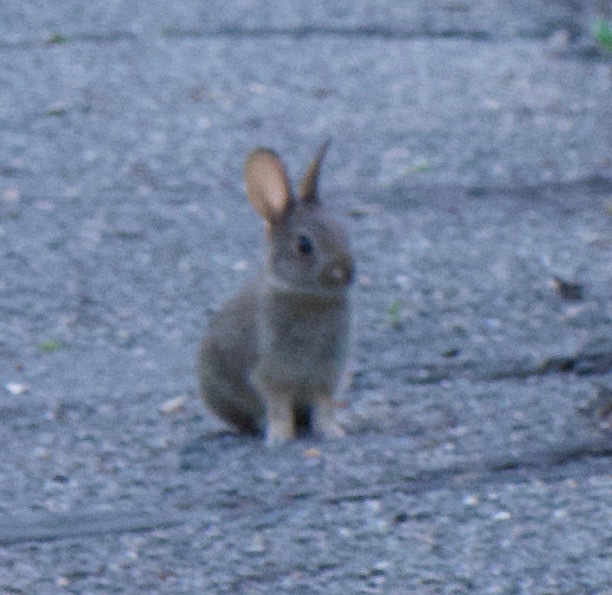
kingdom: Animalia
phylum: Chordata
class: Mammalia
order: Lagomorpha
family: Leporidae
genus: Sylvilagus
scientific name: Sylvilagus audubonii
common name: Desert cottontail
